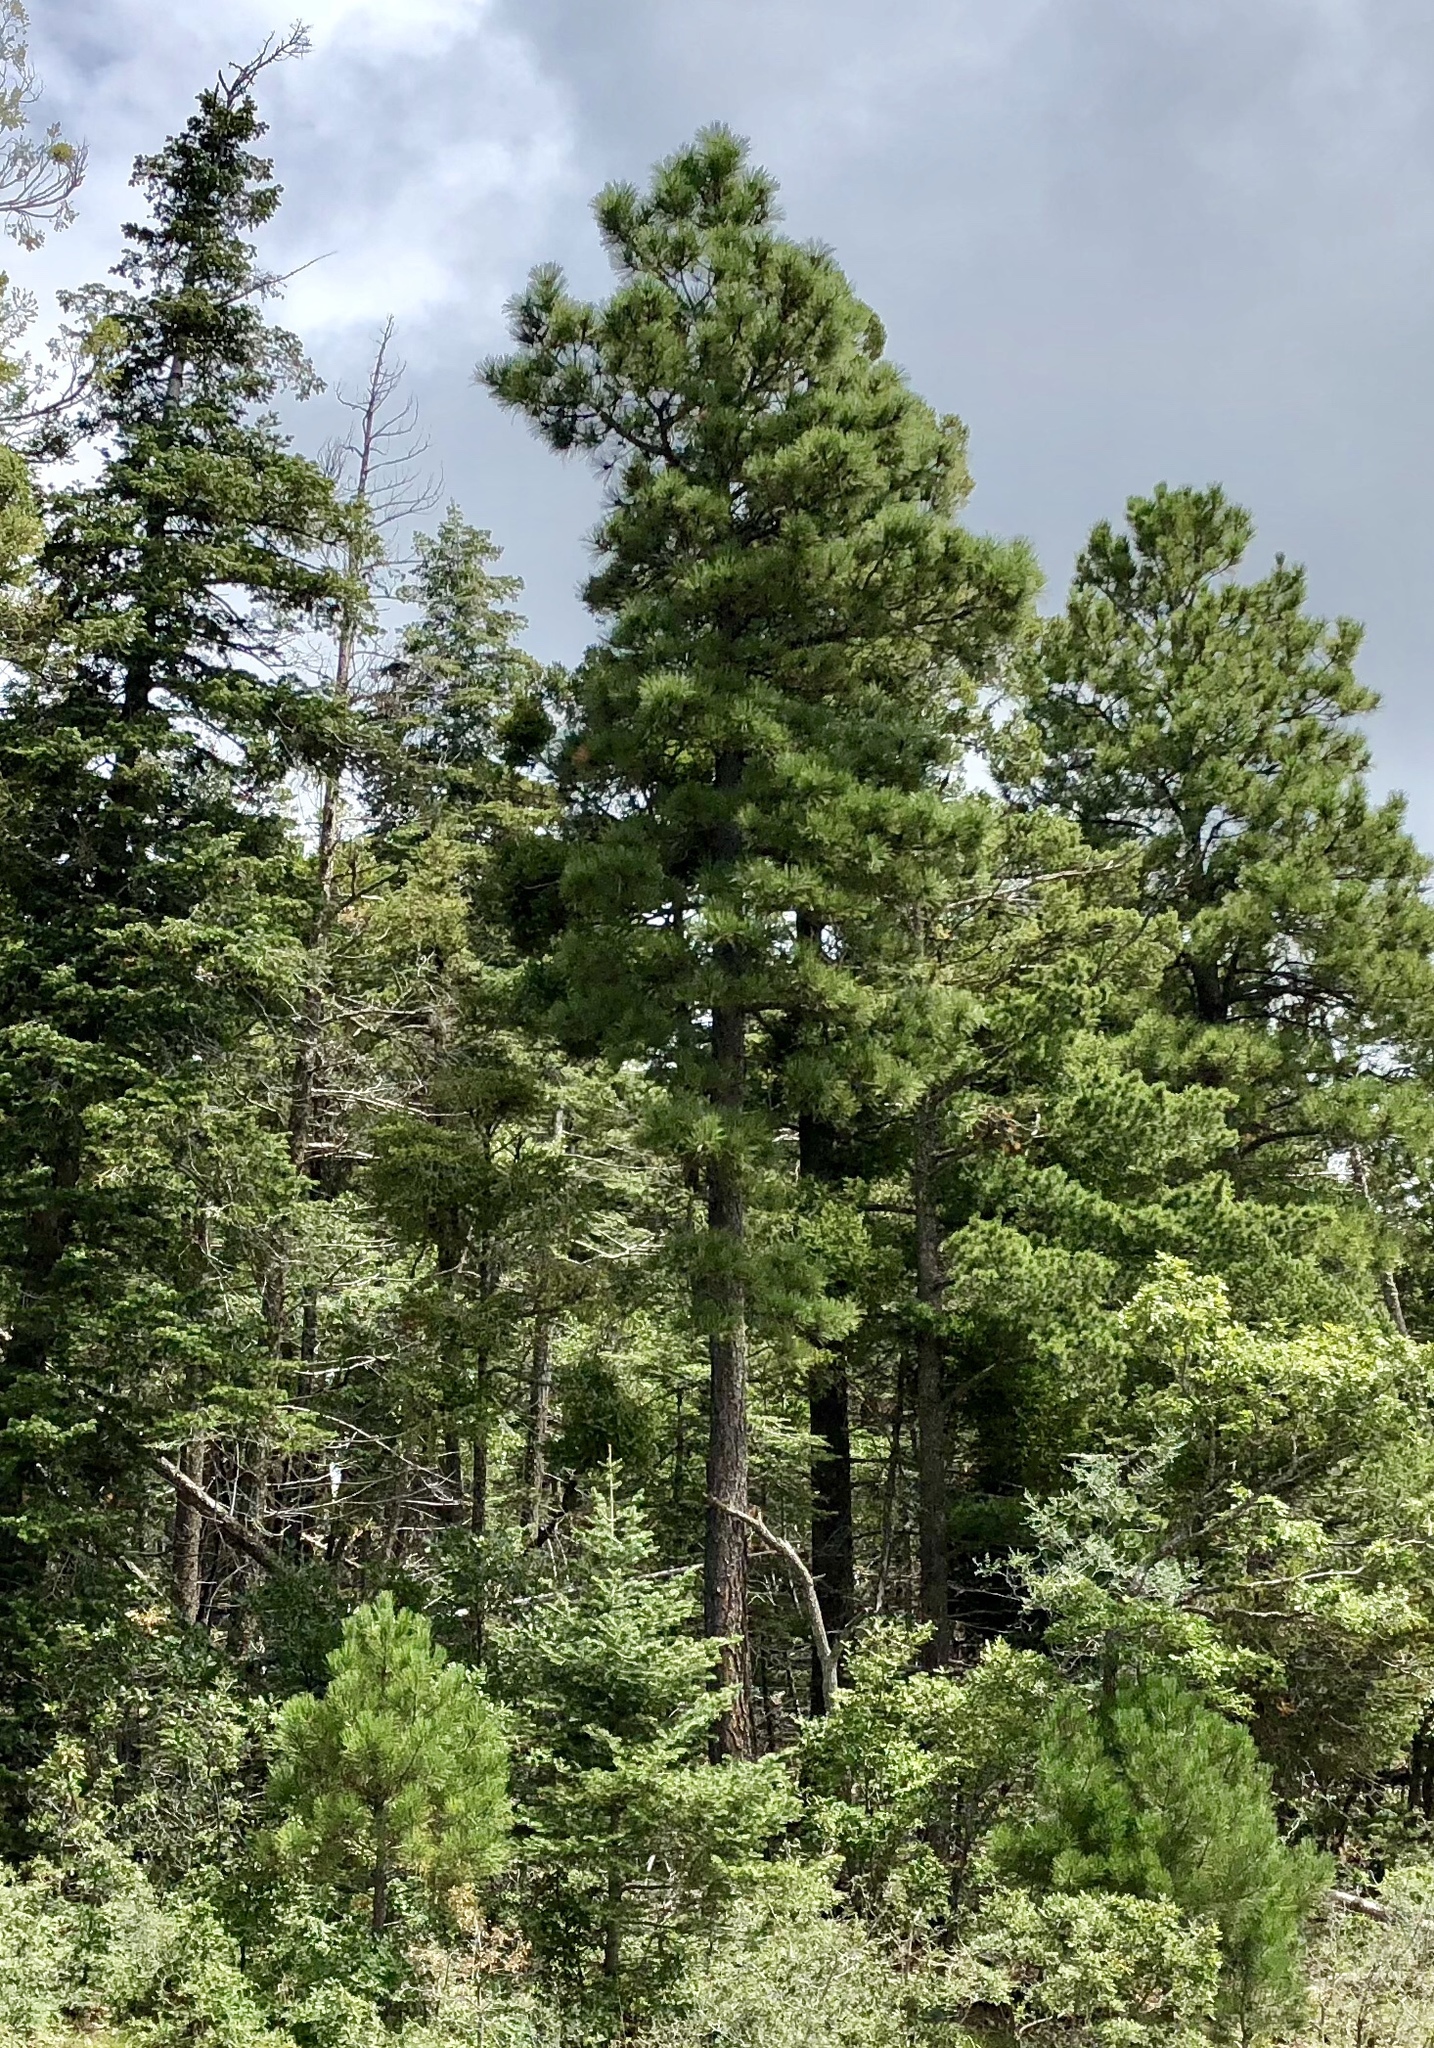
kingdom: Plantae
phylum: Tracheophyta
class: Pinopsida
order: Pinales
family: Pinaceae
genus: Pinus
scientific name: Pinus ponderosa
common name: Western yellow-pine
